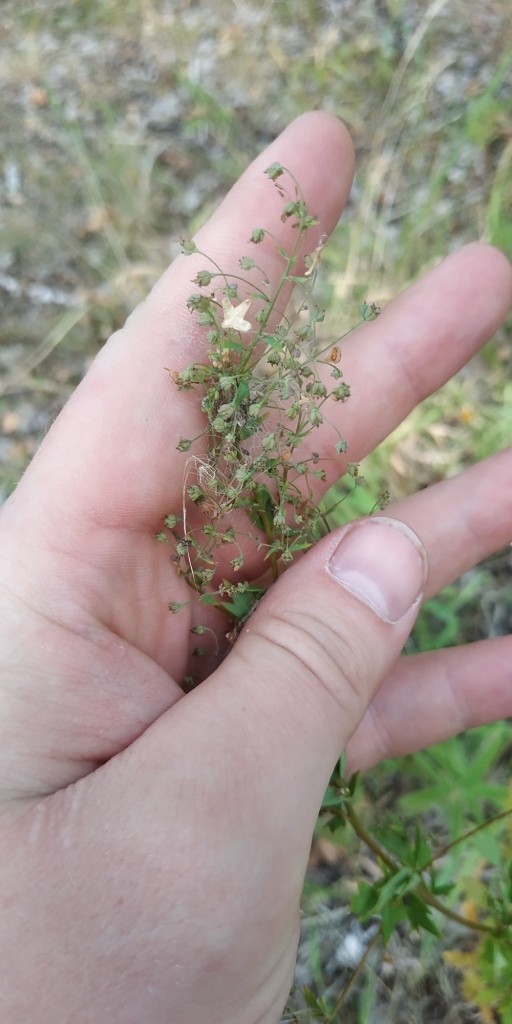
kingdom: Plantae
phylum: Tracheophyta
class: Magnoliopsida
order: Ranunculales
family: Ranunculaceae
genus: Thalictrum
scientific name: Thalictrum simplex
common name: Small meadow-rue
